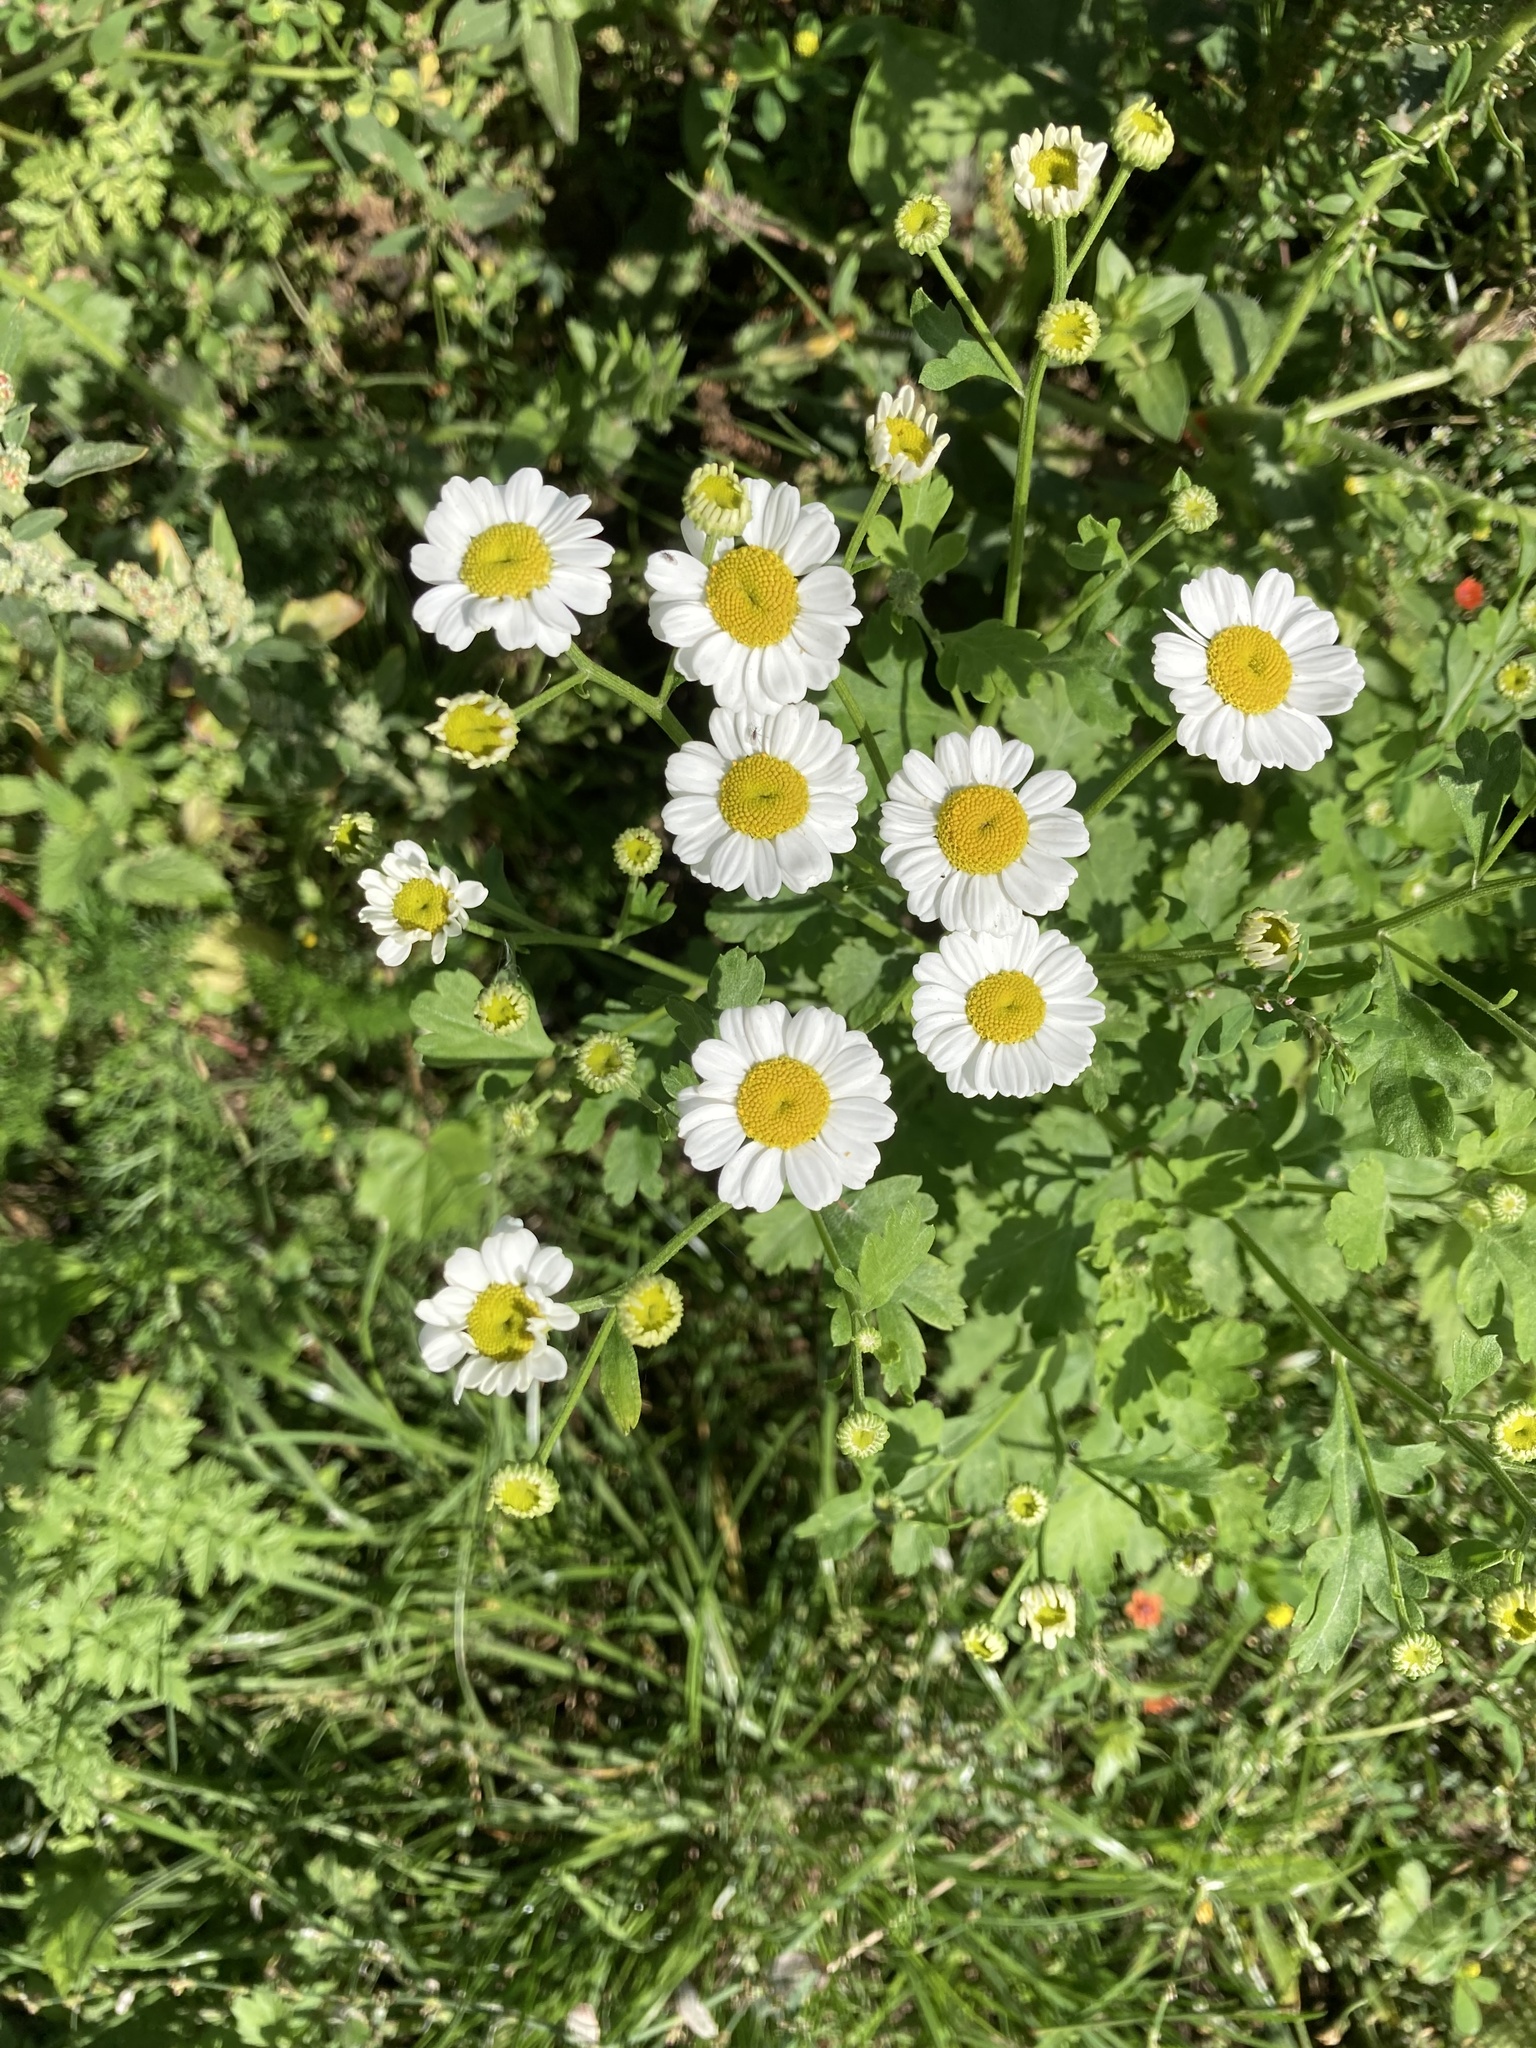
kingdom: Plantae
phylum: Tracheophyta
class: Magnoliopsida
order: Asterales
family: Asteraceae
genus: Tanacetum
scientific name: Tanacetum parthenium
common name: Feverfew
